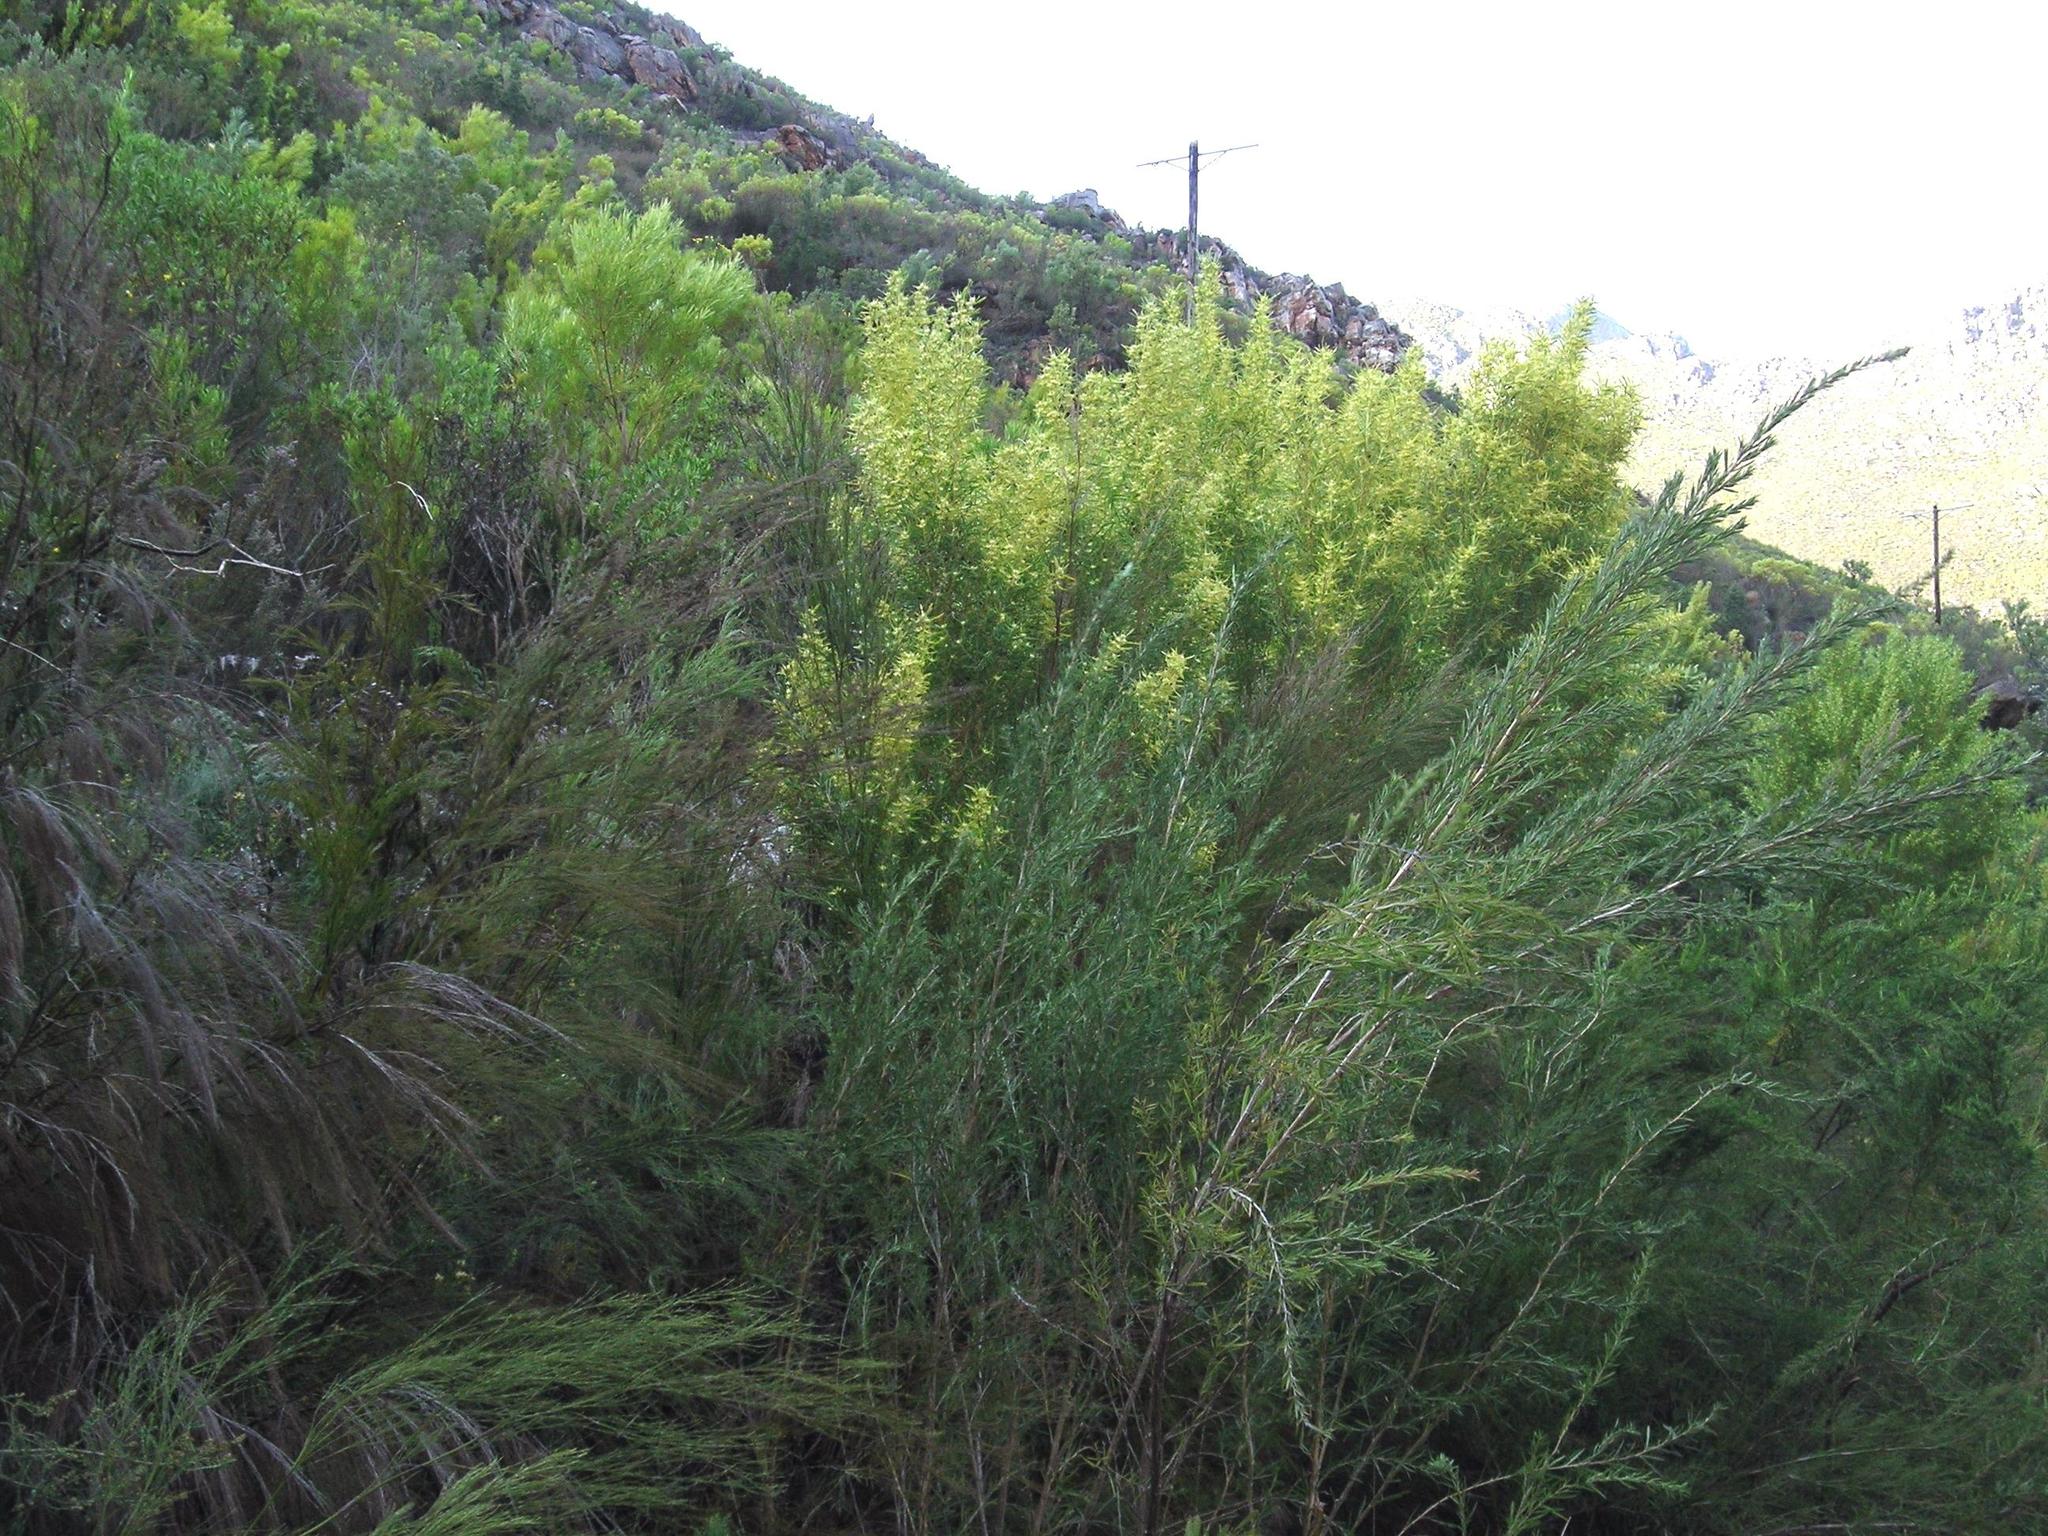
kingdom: Plantae
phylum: Tracheophyta
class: Magnoliopsida
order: Proteales
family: Proteaceae
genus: Leucadendron
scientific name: Leucadendron salicifolium
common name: Common stream conebush
